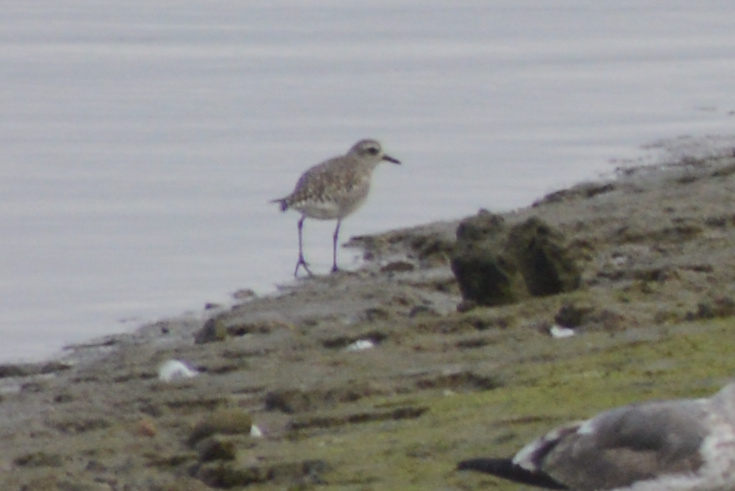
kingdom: Animalia
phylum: Chordata
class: Aves
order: Charadriiformes
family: Charadriidae
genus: Pluvialis
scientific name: Pluvialis squatarola
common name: Grey plover
